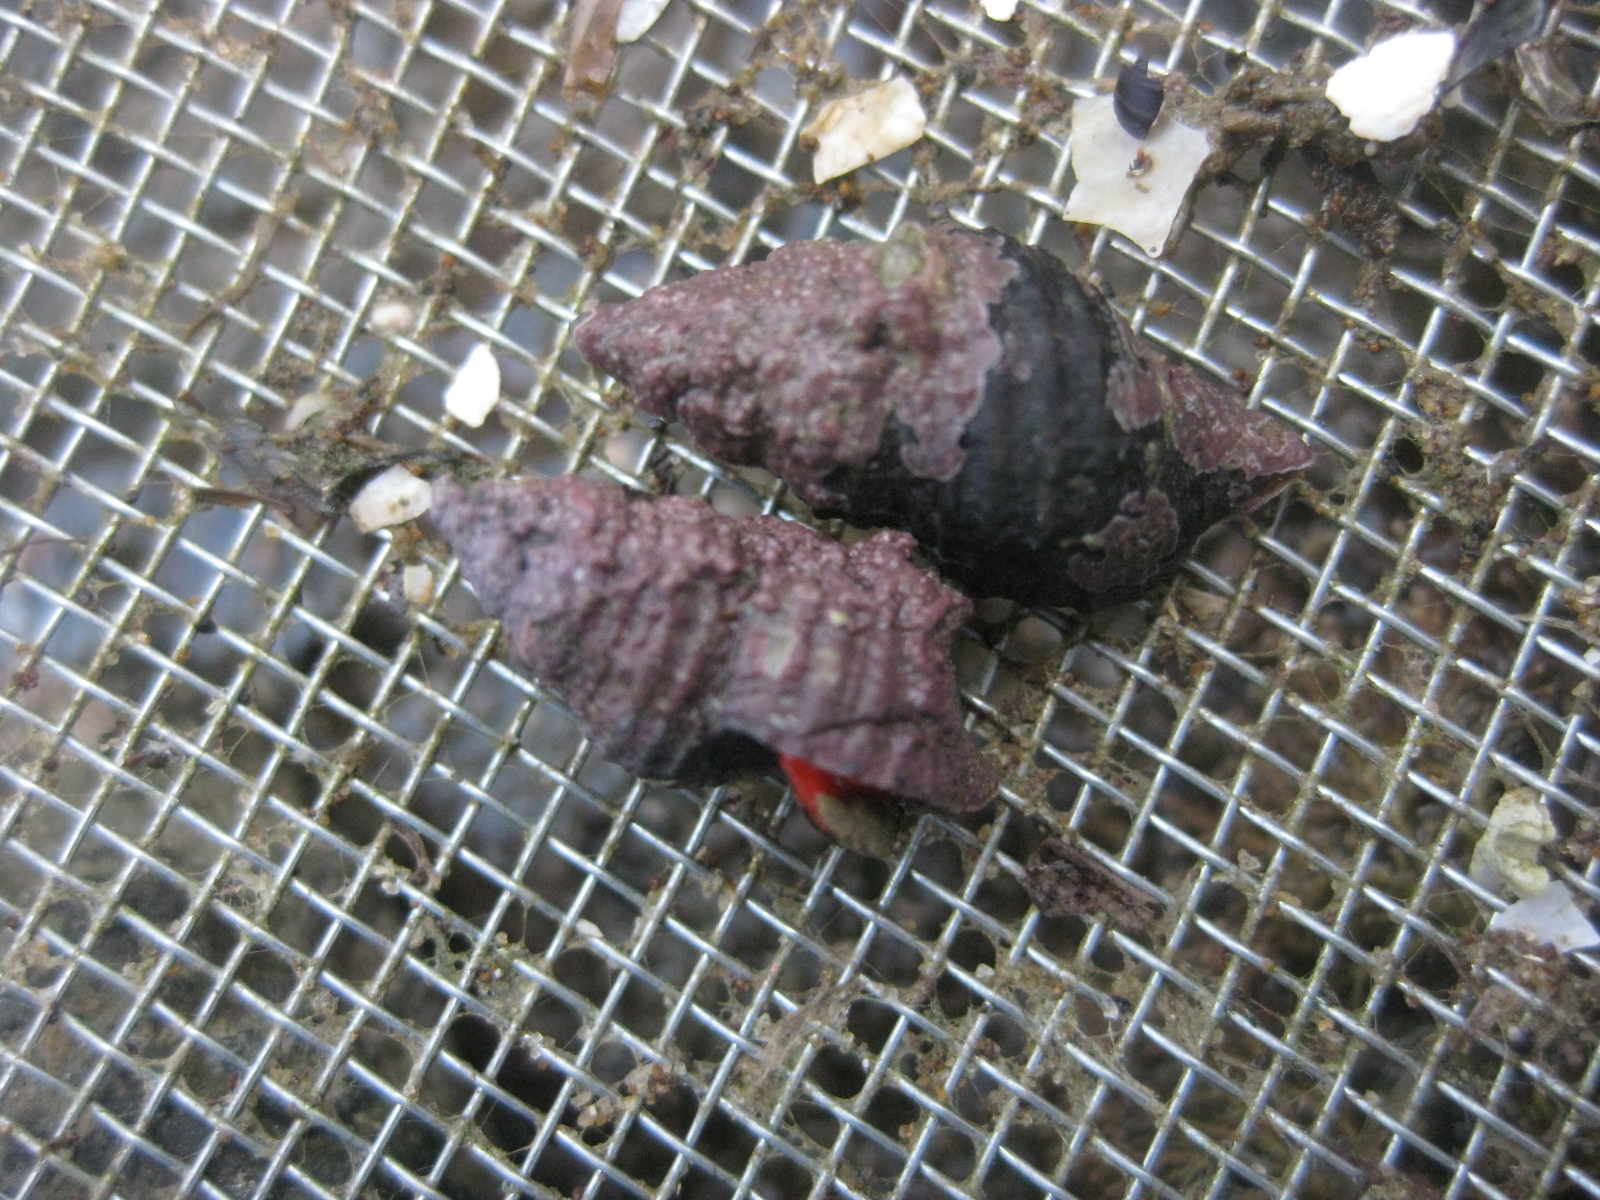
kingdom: Animalia
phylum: Mollusca
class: Gastropoda
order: Neogastropoda
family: Fasciolariidae
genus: Taron
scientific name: Taron dubius
